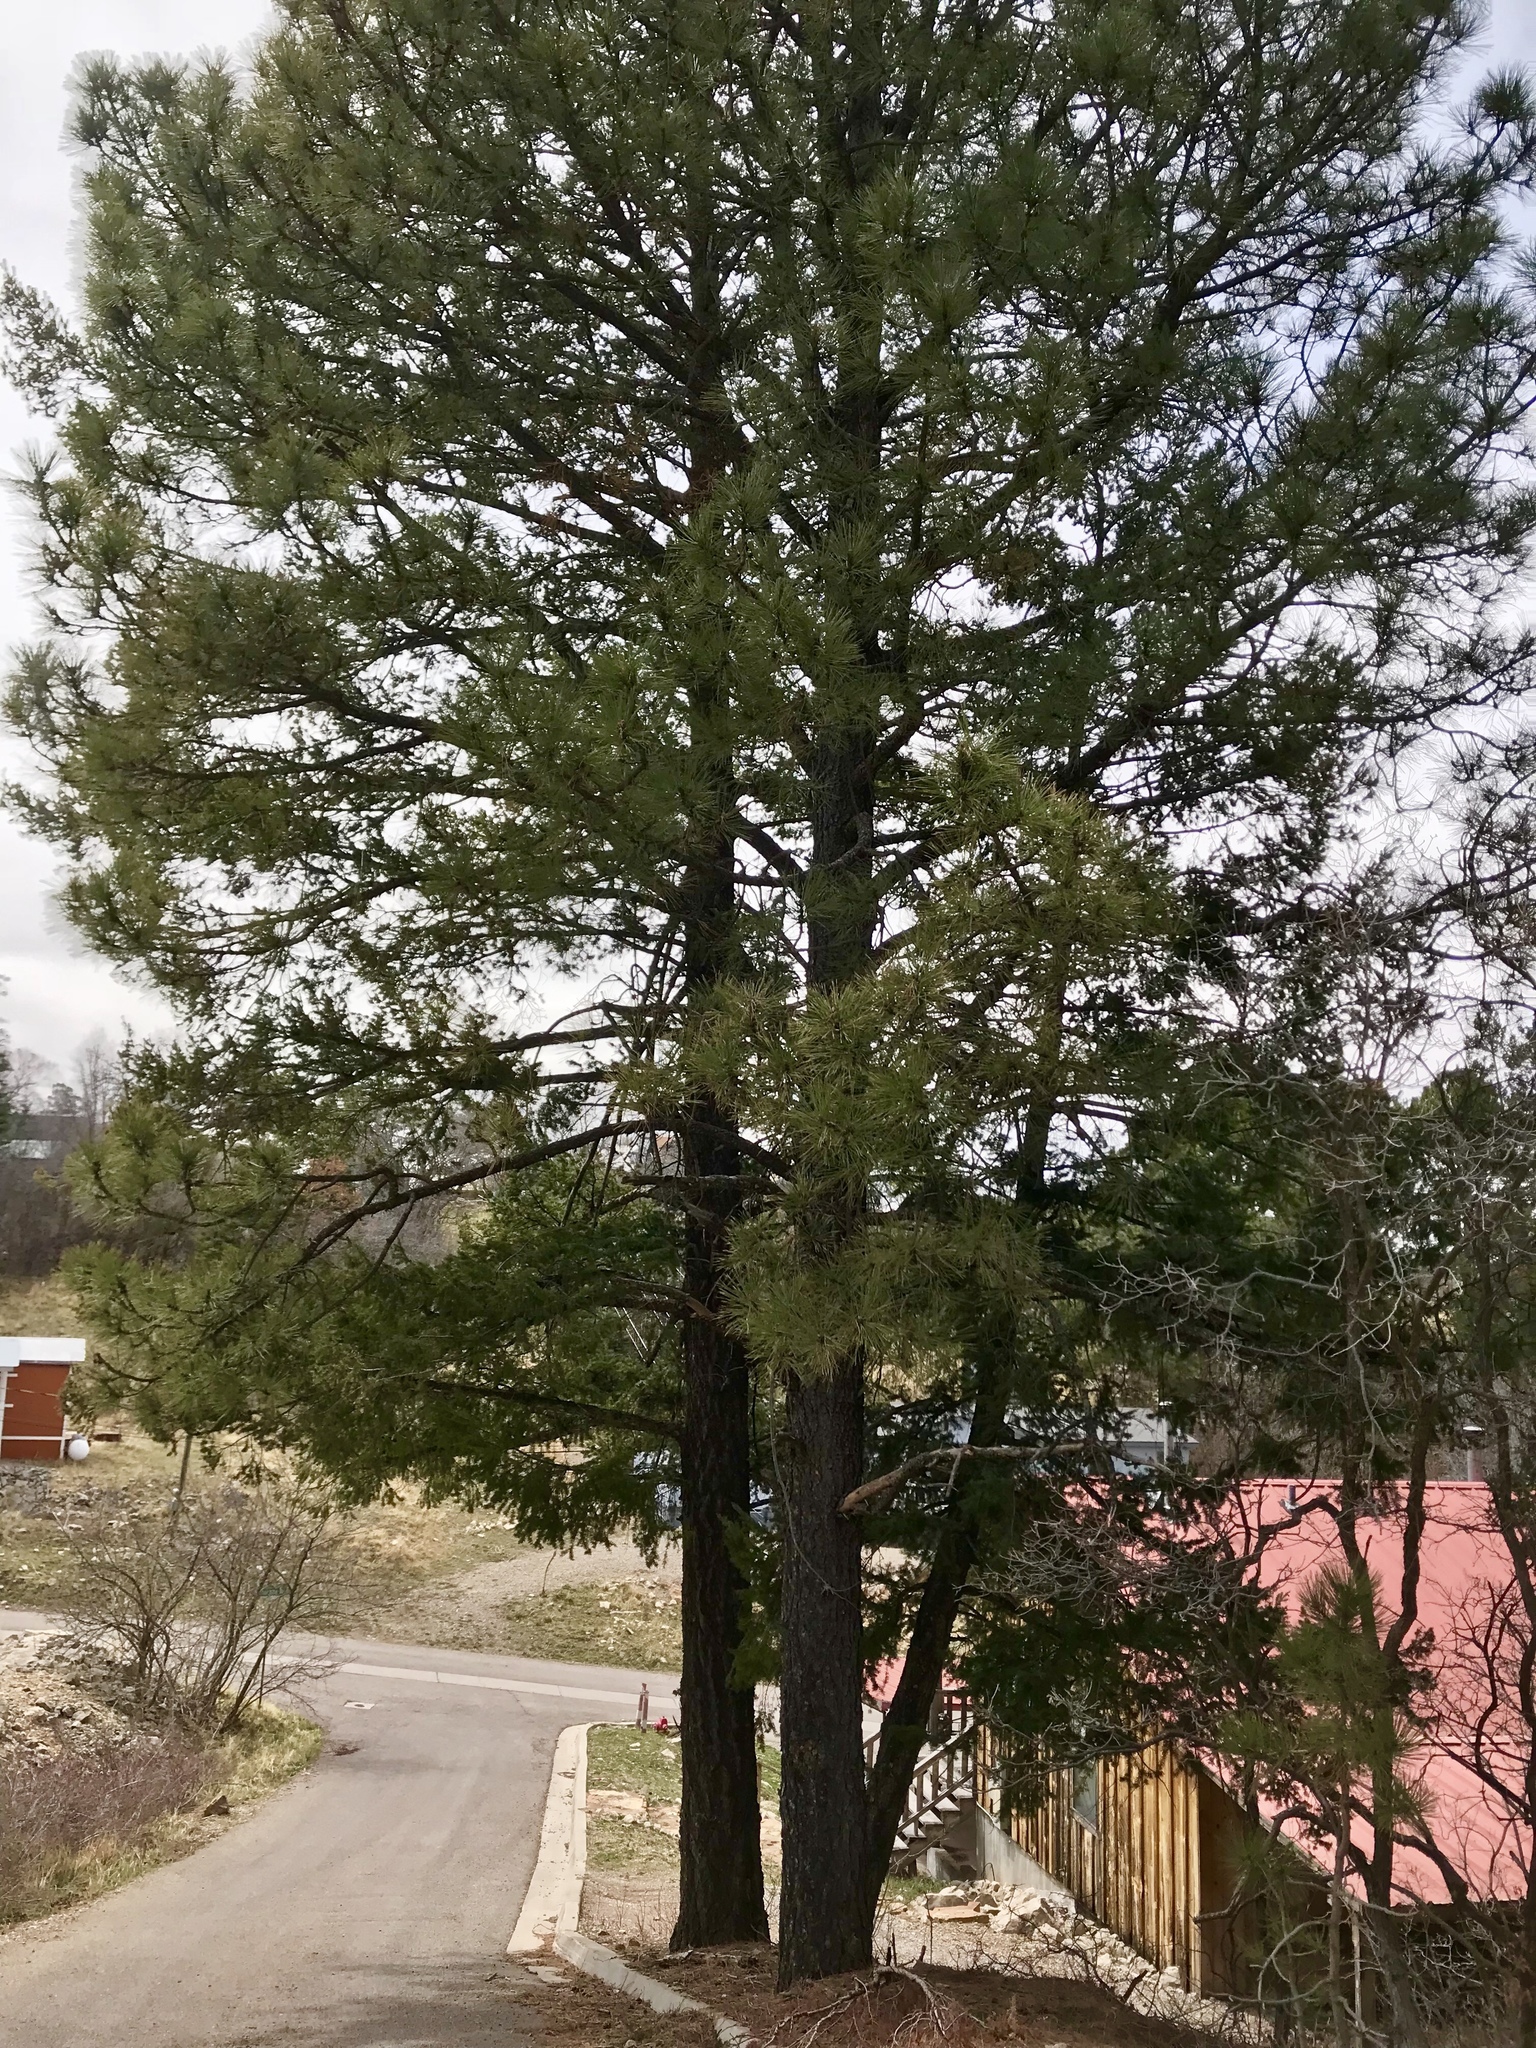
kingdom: Plantae
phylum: Tracheophyta
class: Pinopsida
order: Pinales
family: Pinaceae
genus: Pinus
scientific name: Pinus ponderosa
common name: Western yellow-pine
